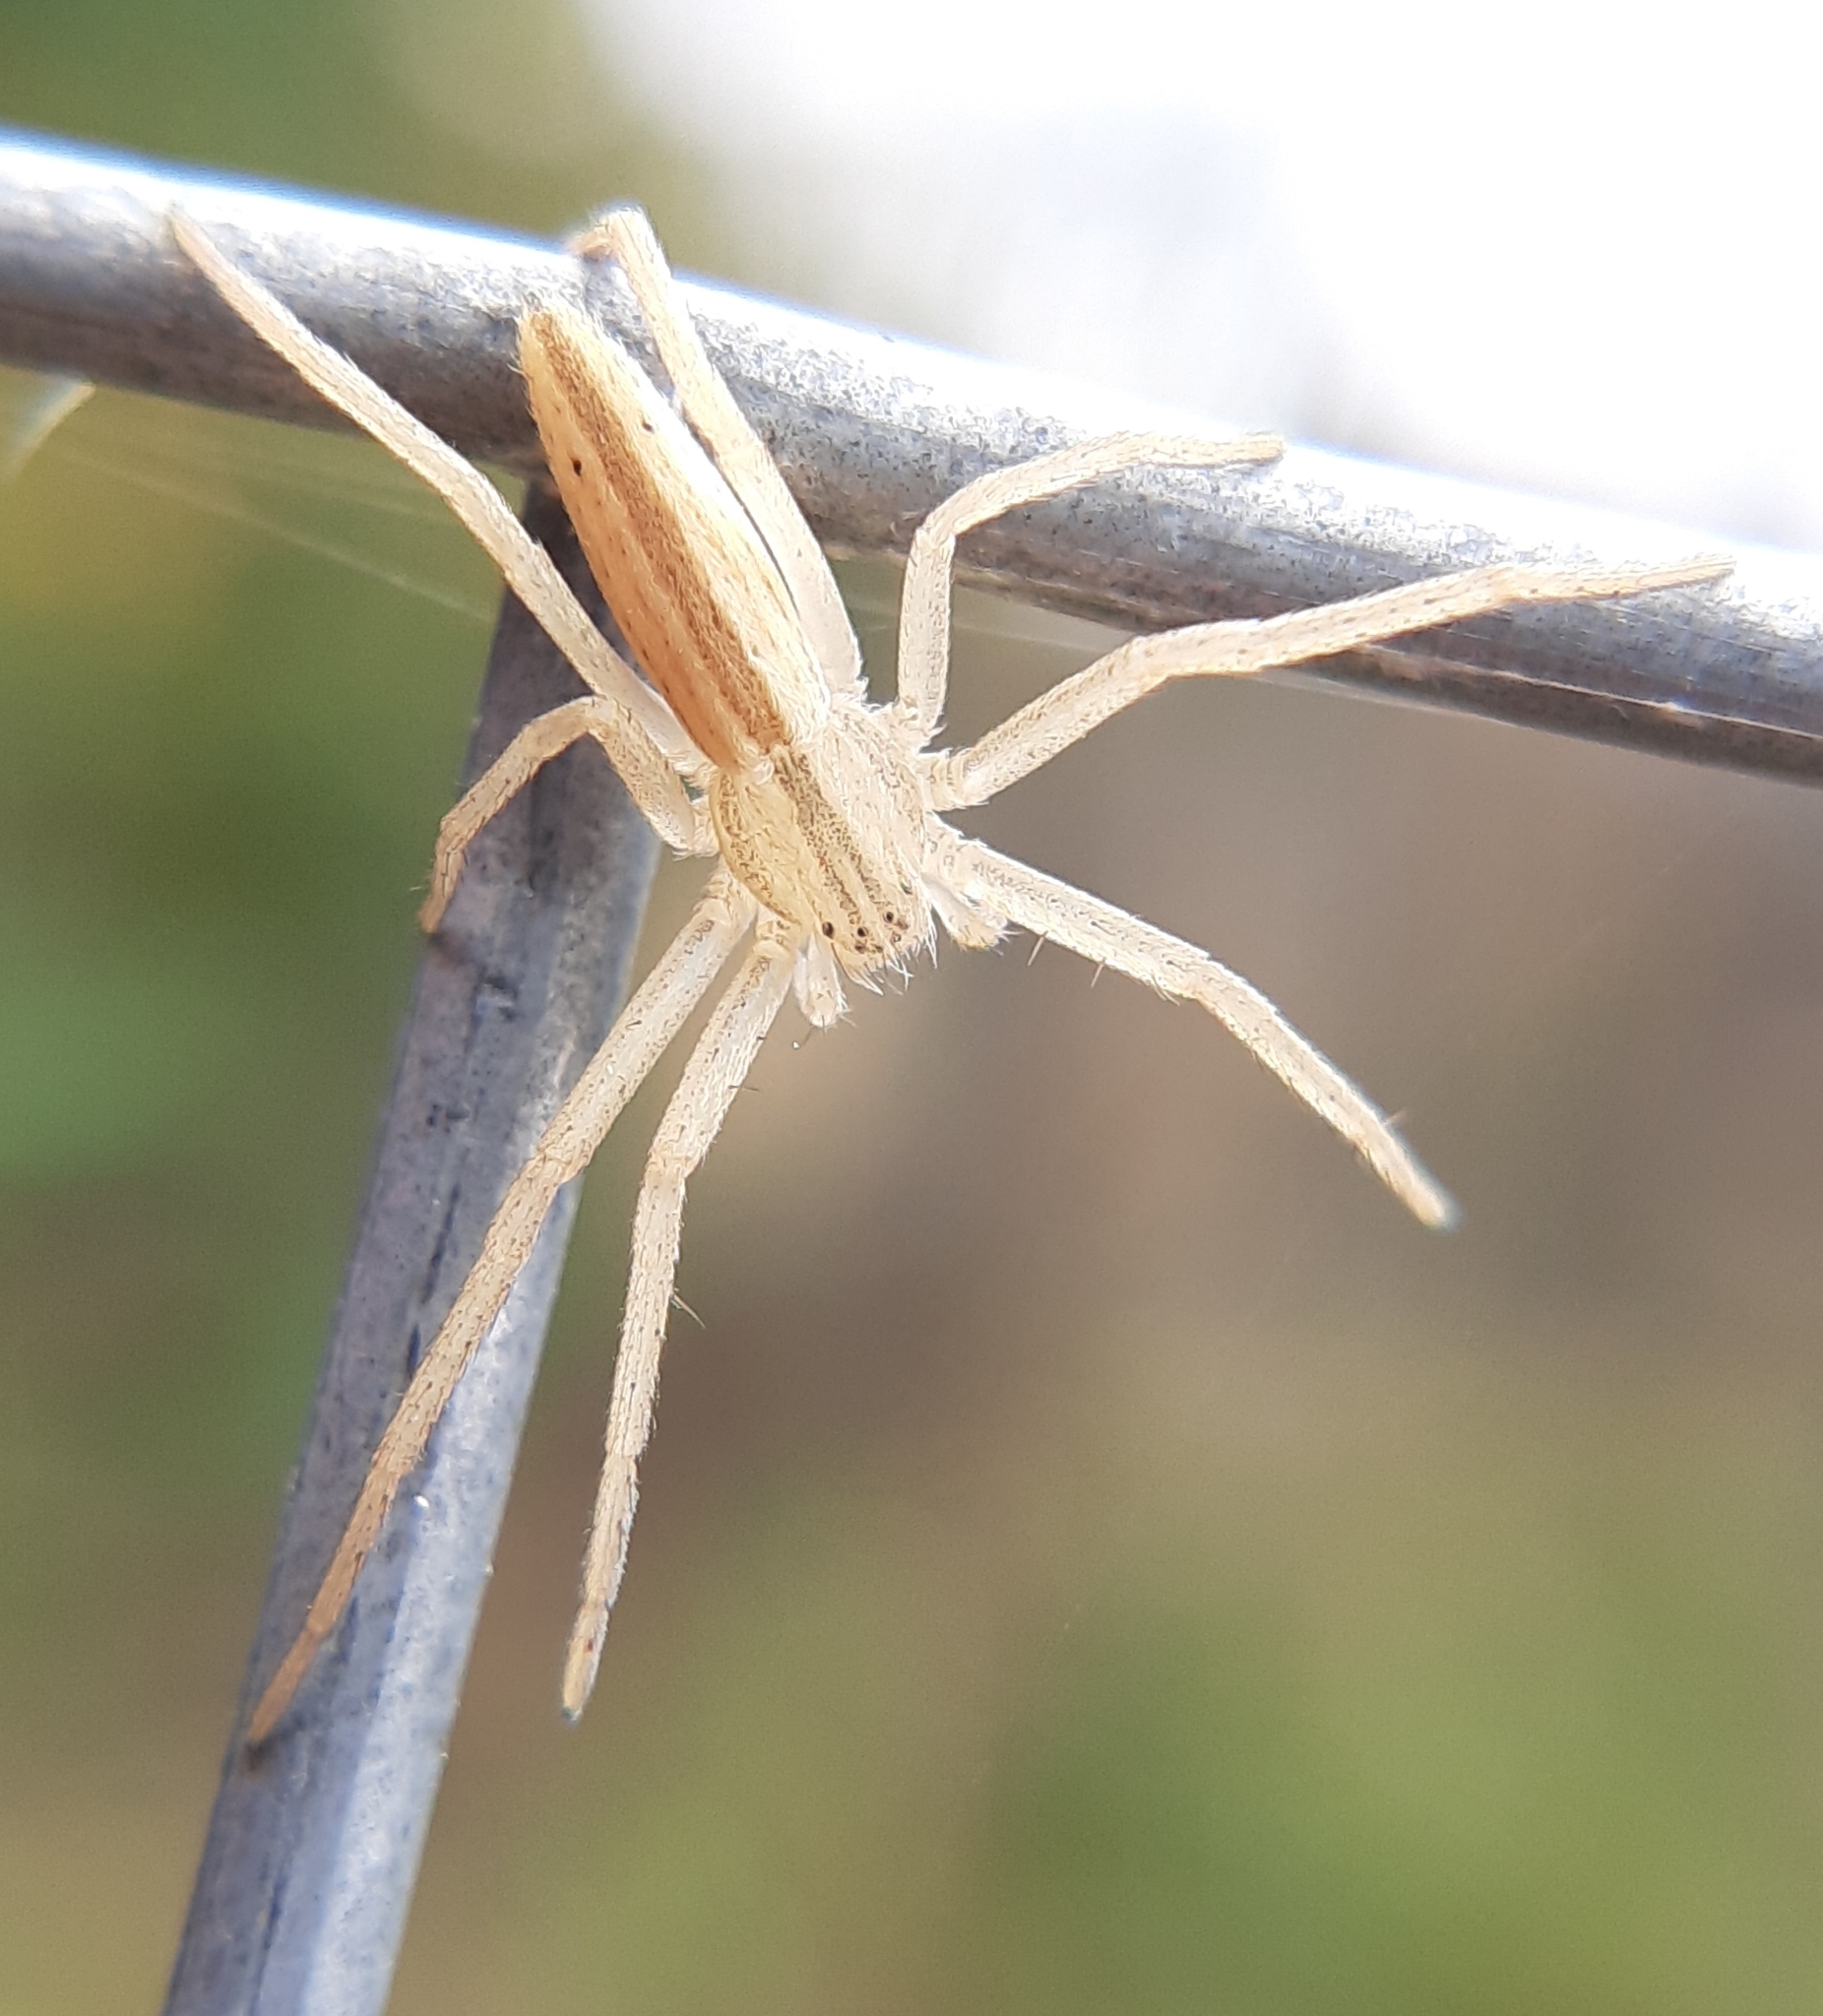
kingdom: Animalia
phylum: Arthropoda
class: Arachnida
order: Araneae
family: Philodromidae
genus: Tibellus
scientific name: Tibellus oblongus
